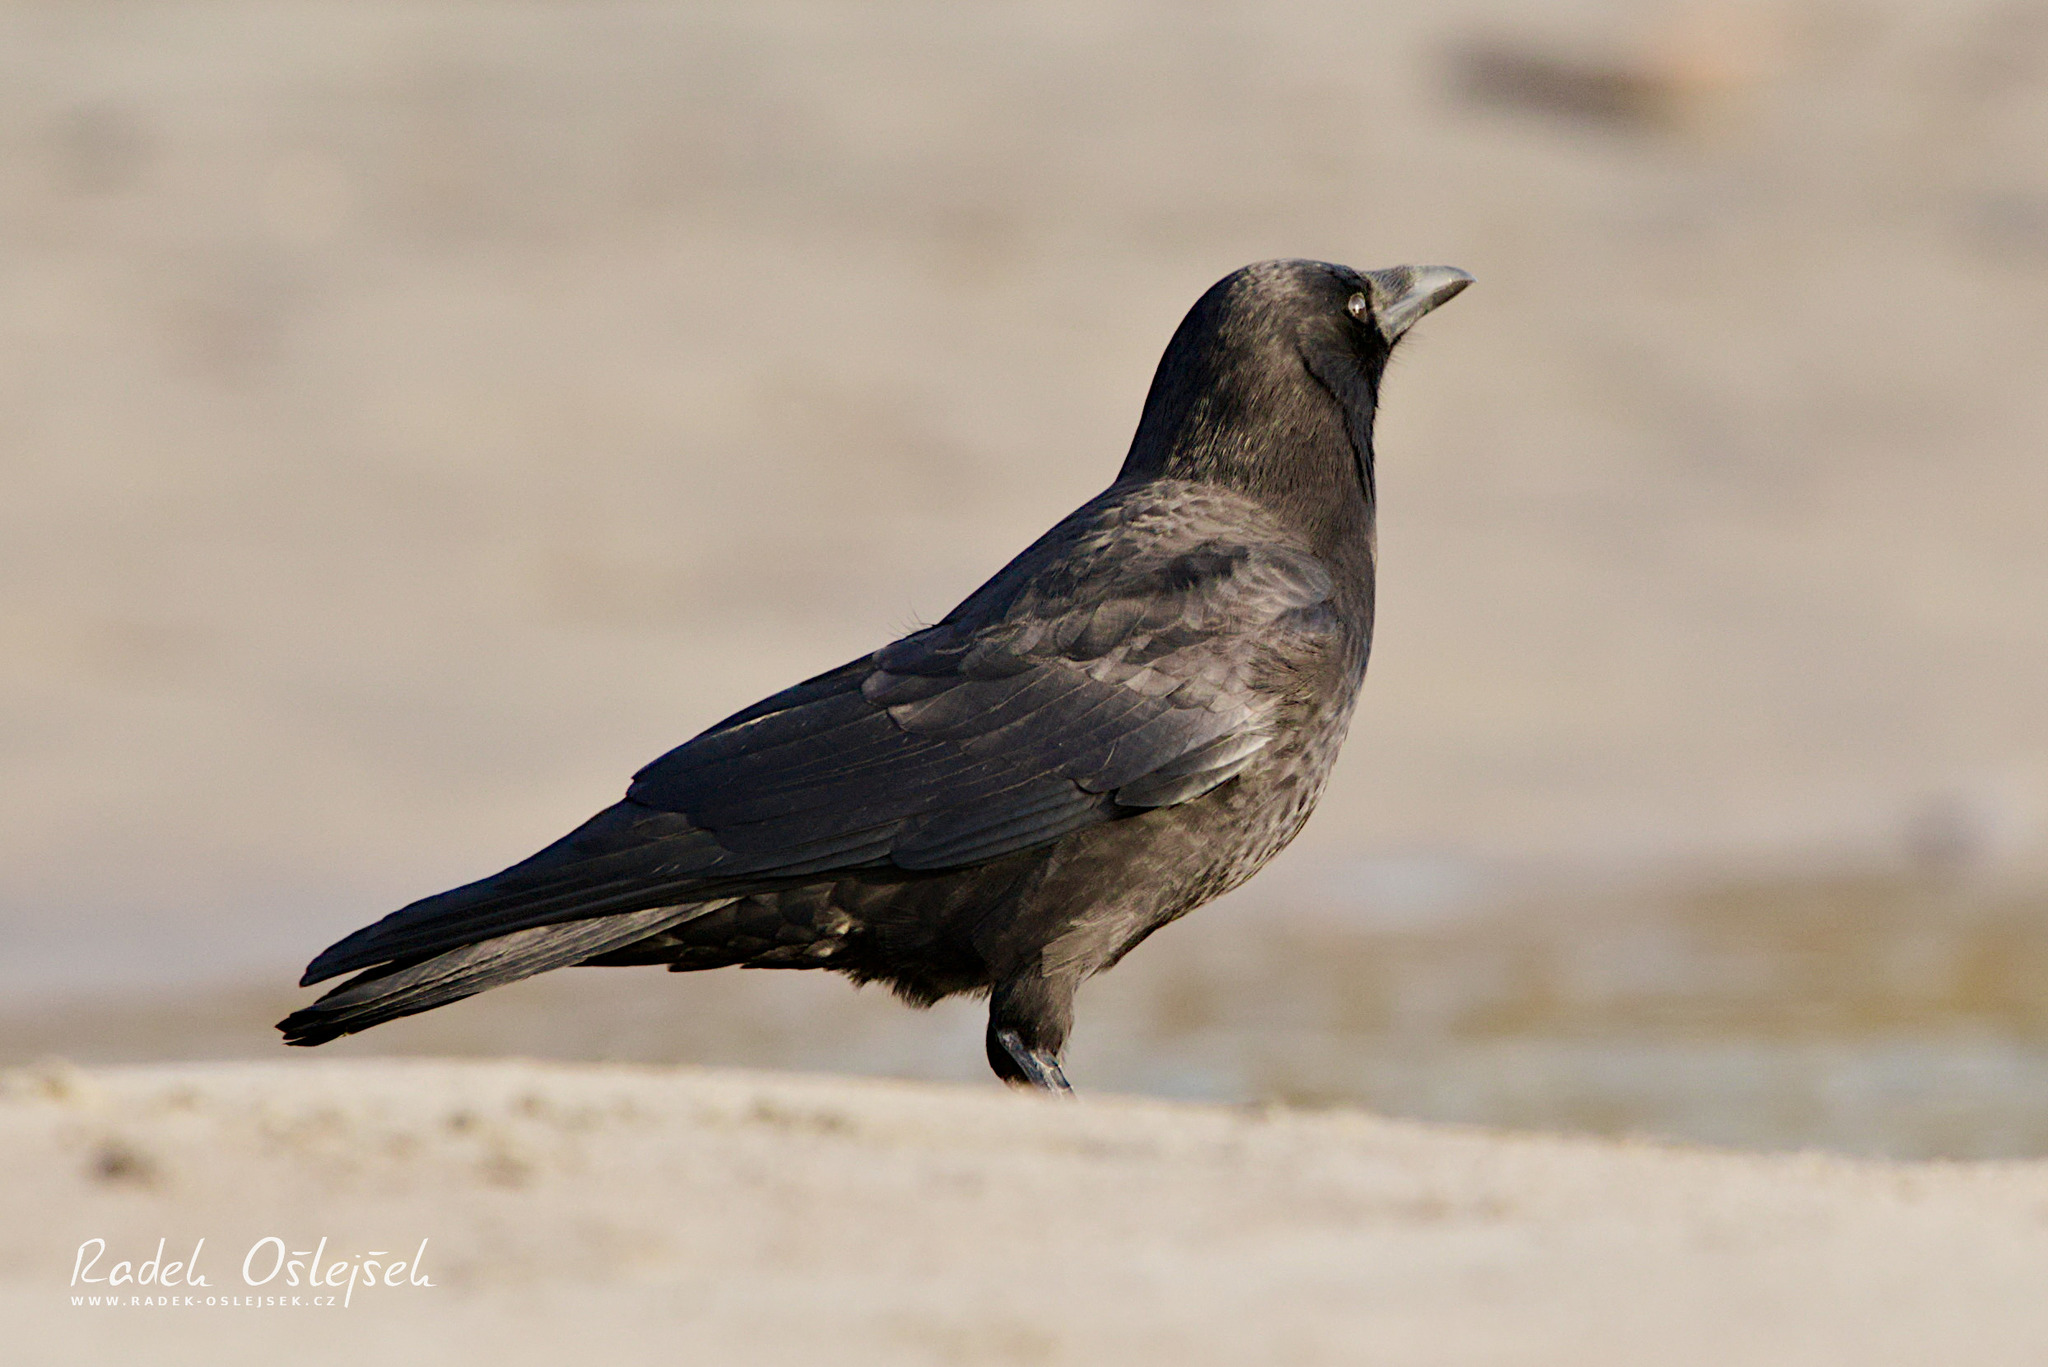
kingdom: Animalia
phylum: Chordata
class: Aves
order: Passeriformes
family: Corvidae
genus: Corvus
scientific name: Corvus brachyrhynchos
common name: American crow
